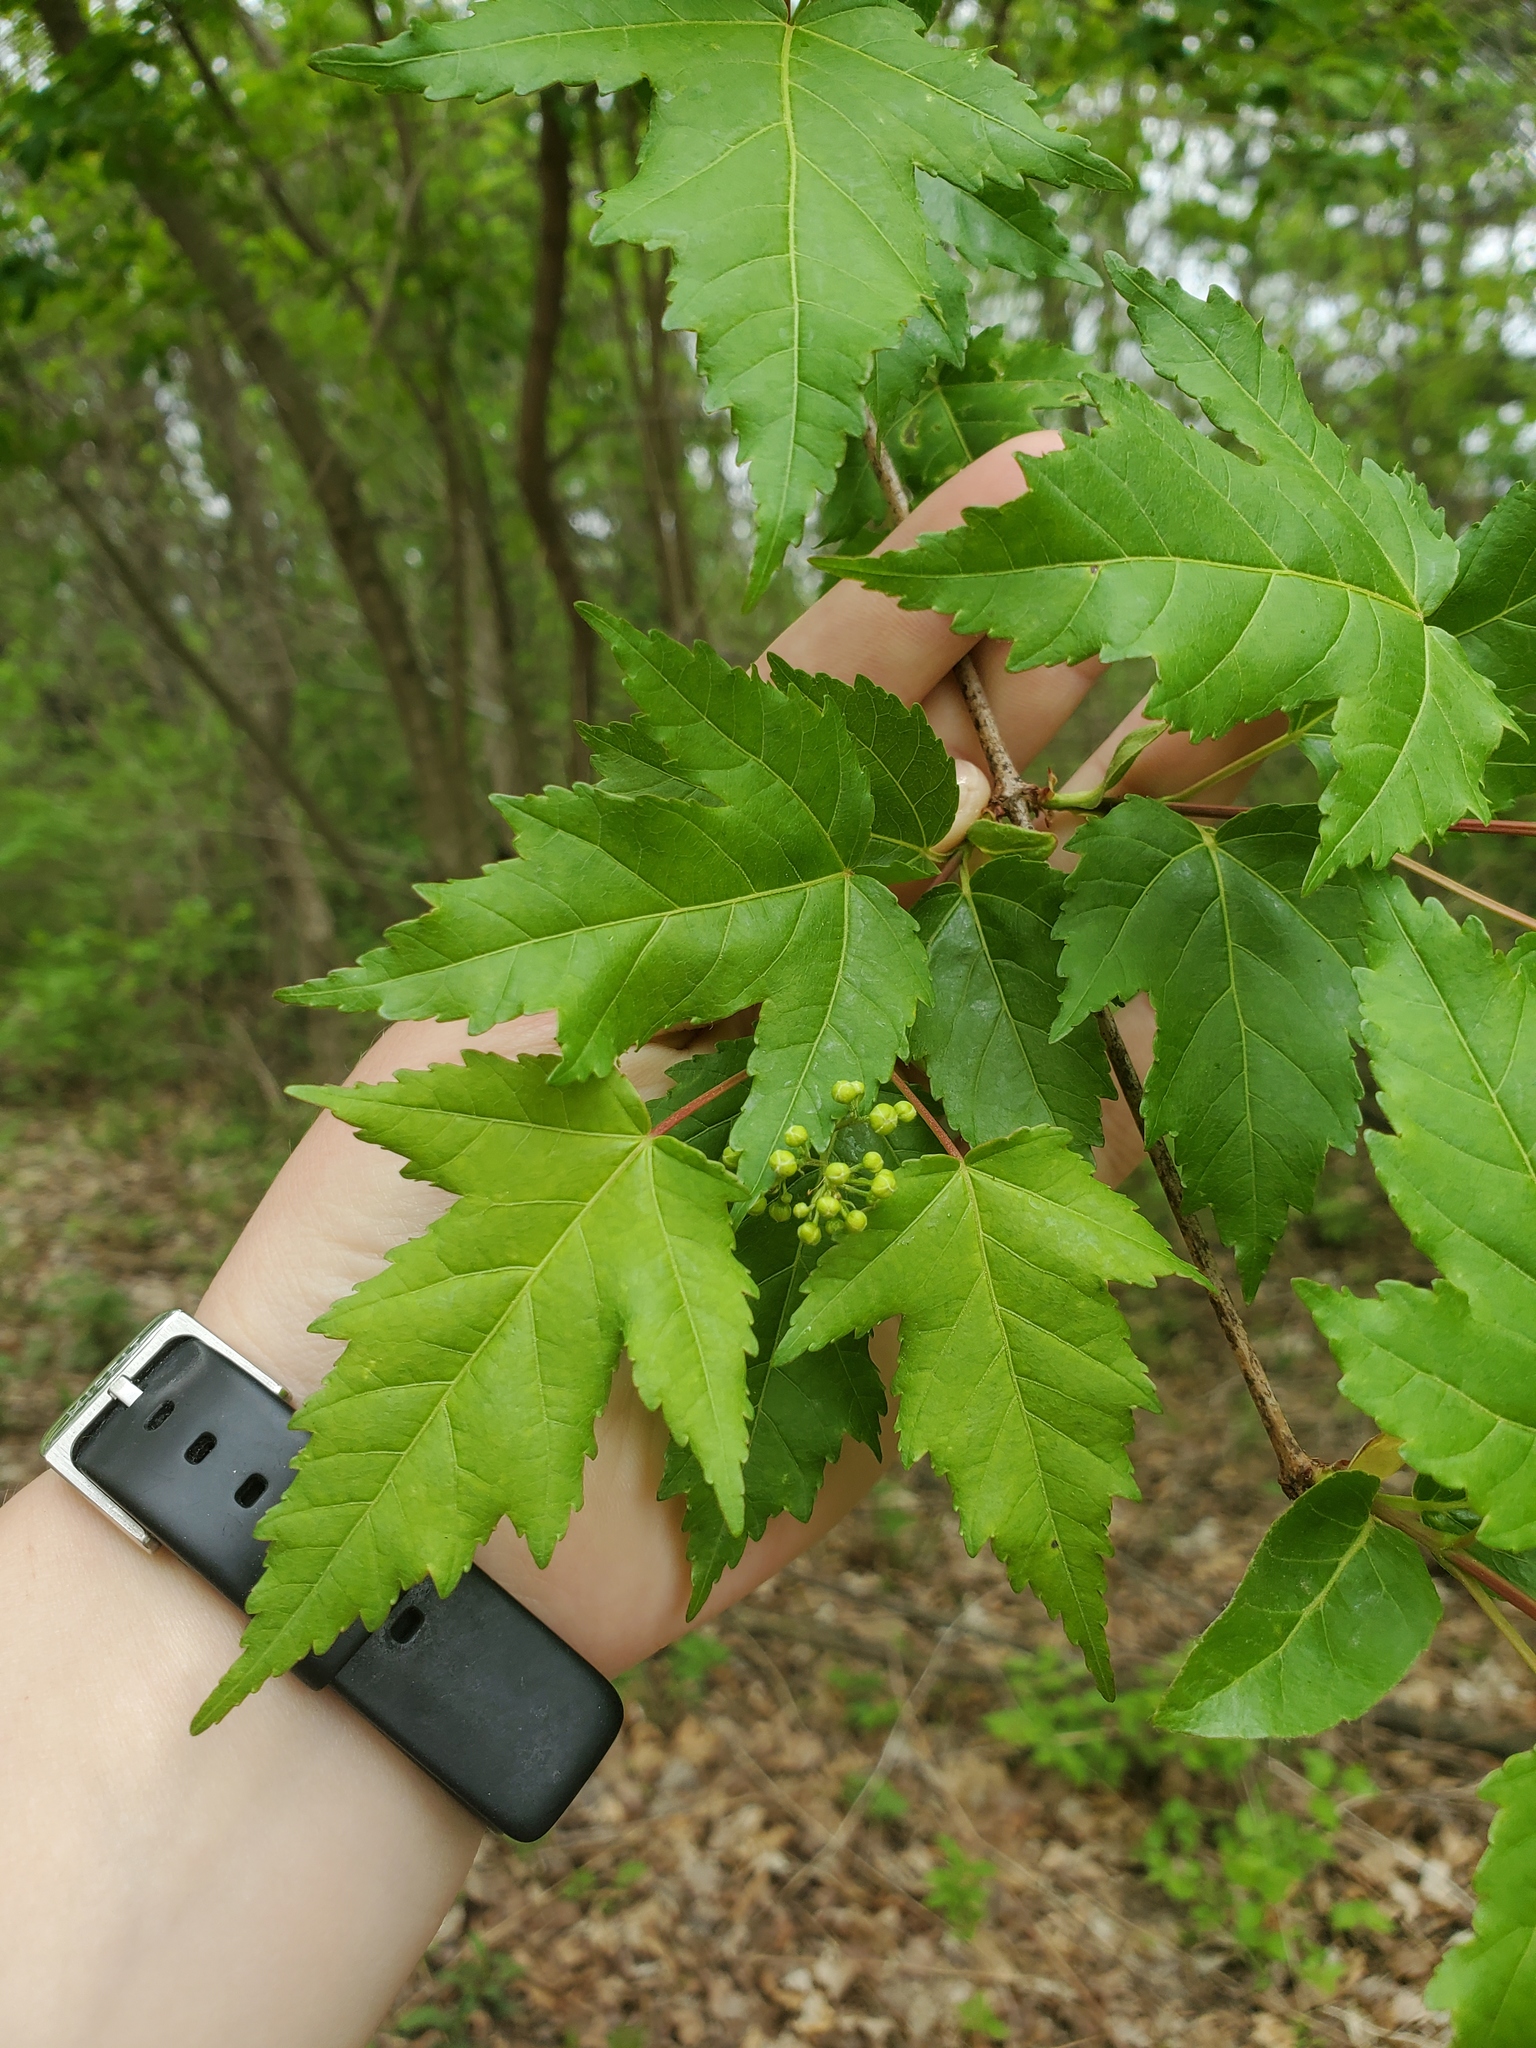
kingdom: Plantae
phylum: Tracheophyta
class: Magnoliopsida
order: Sapindales
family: Sapindaceae
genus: Acer
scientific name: Acer tataricum
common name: Tartar maple
